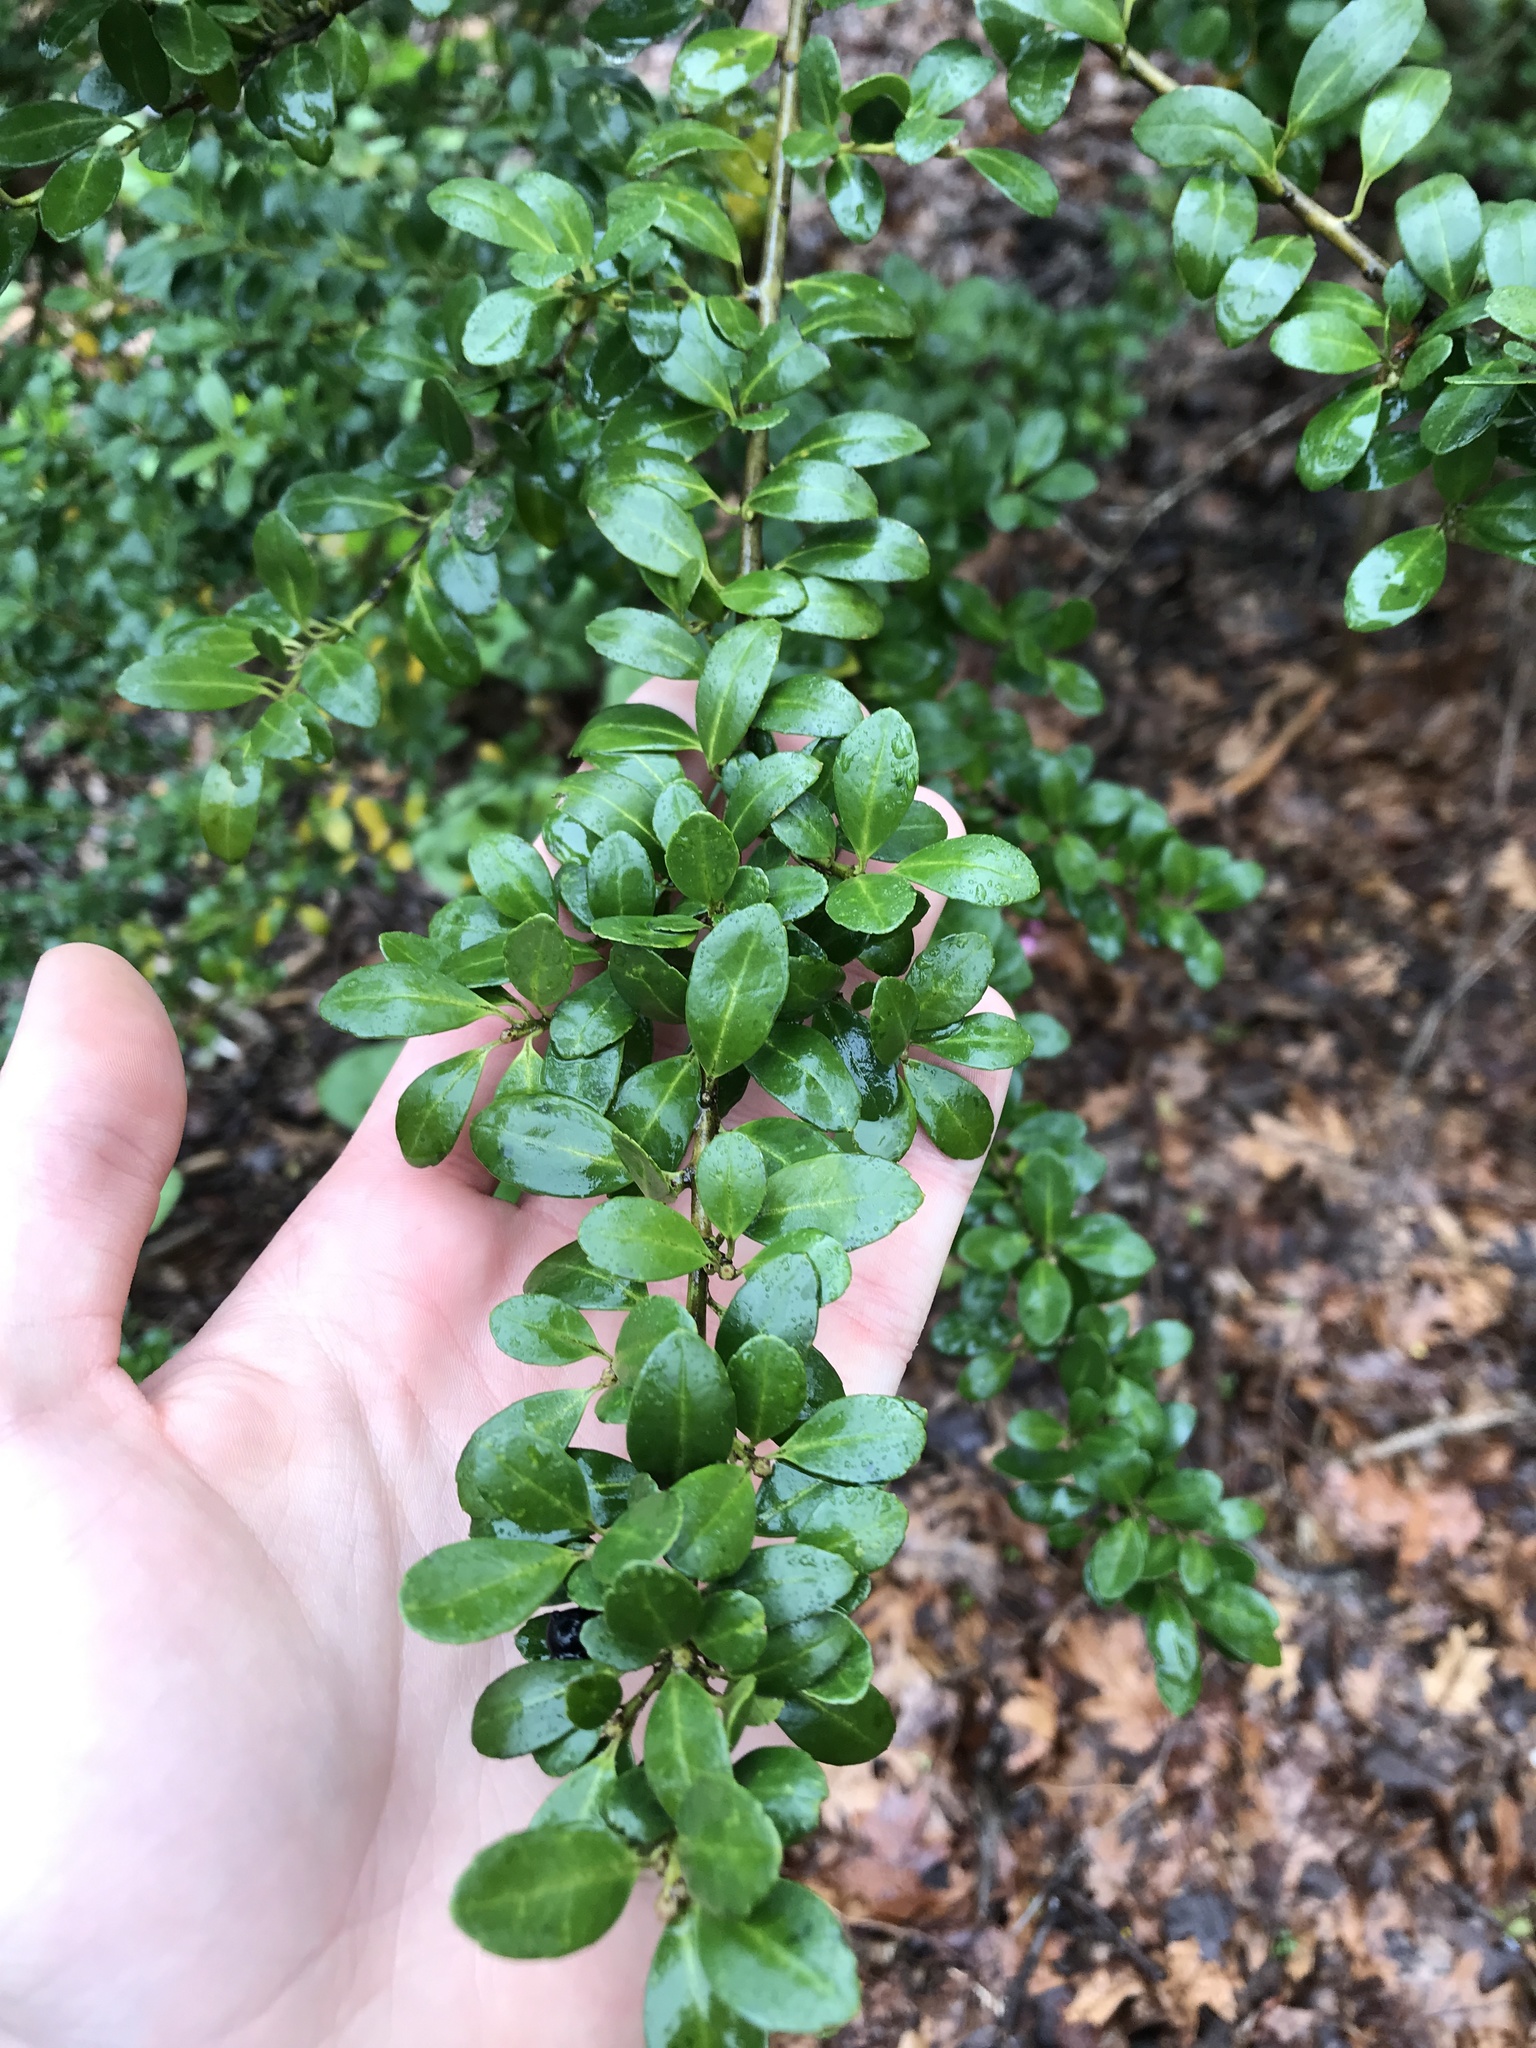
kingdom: Plantae
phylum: Tracheophyta
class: Magnoliopsida
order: Aquifoliales
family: Aquifoliaceae
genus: Ilex
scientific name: Ilex crenata
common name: Japanese holly
